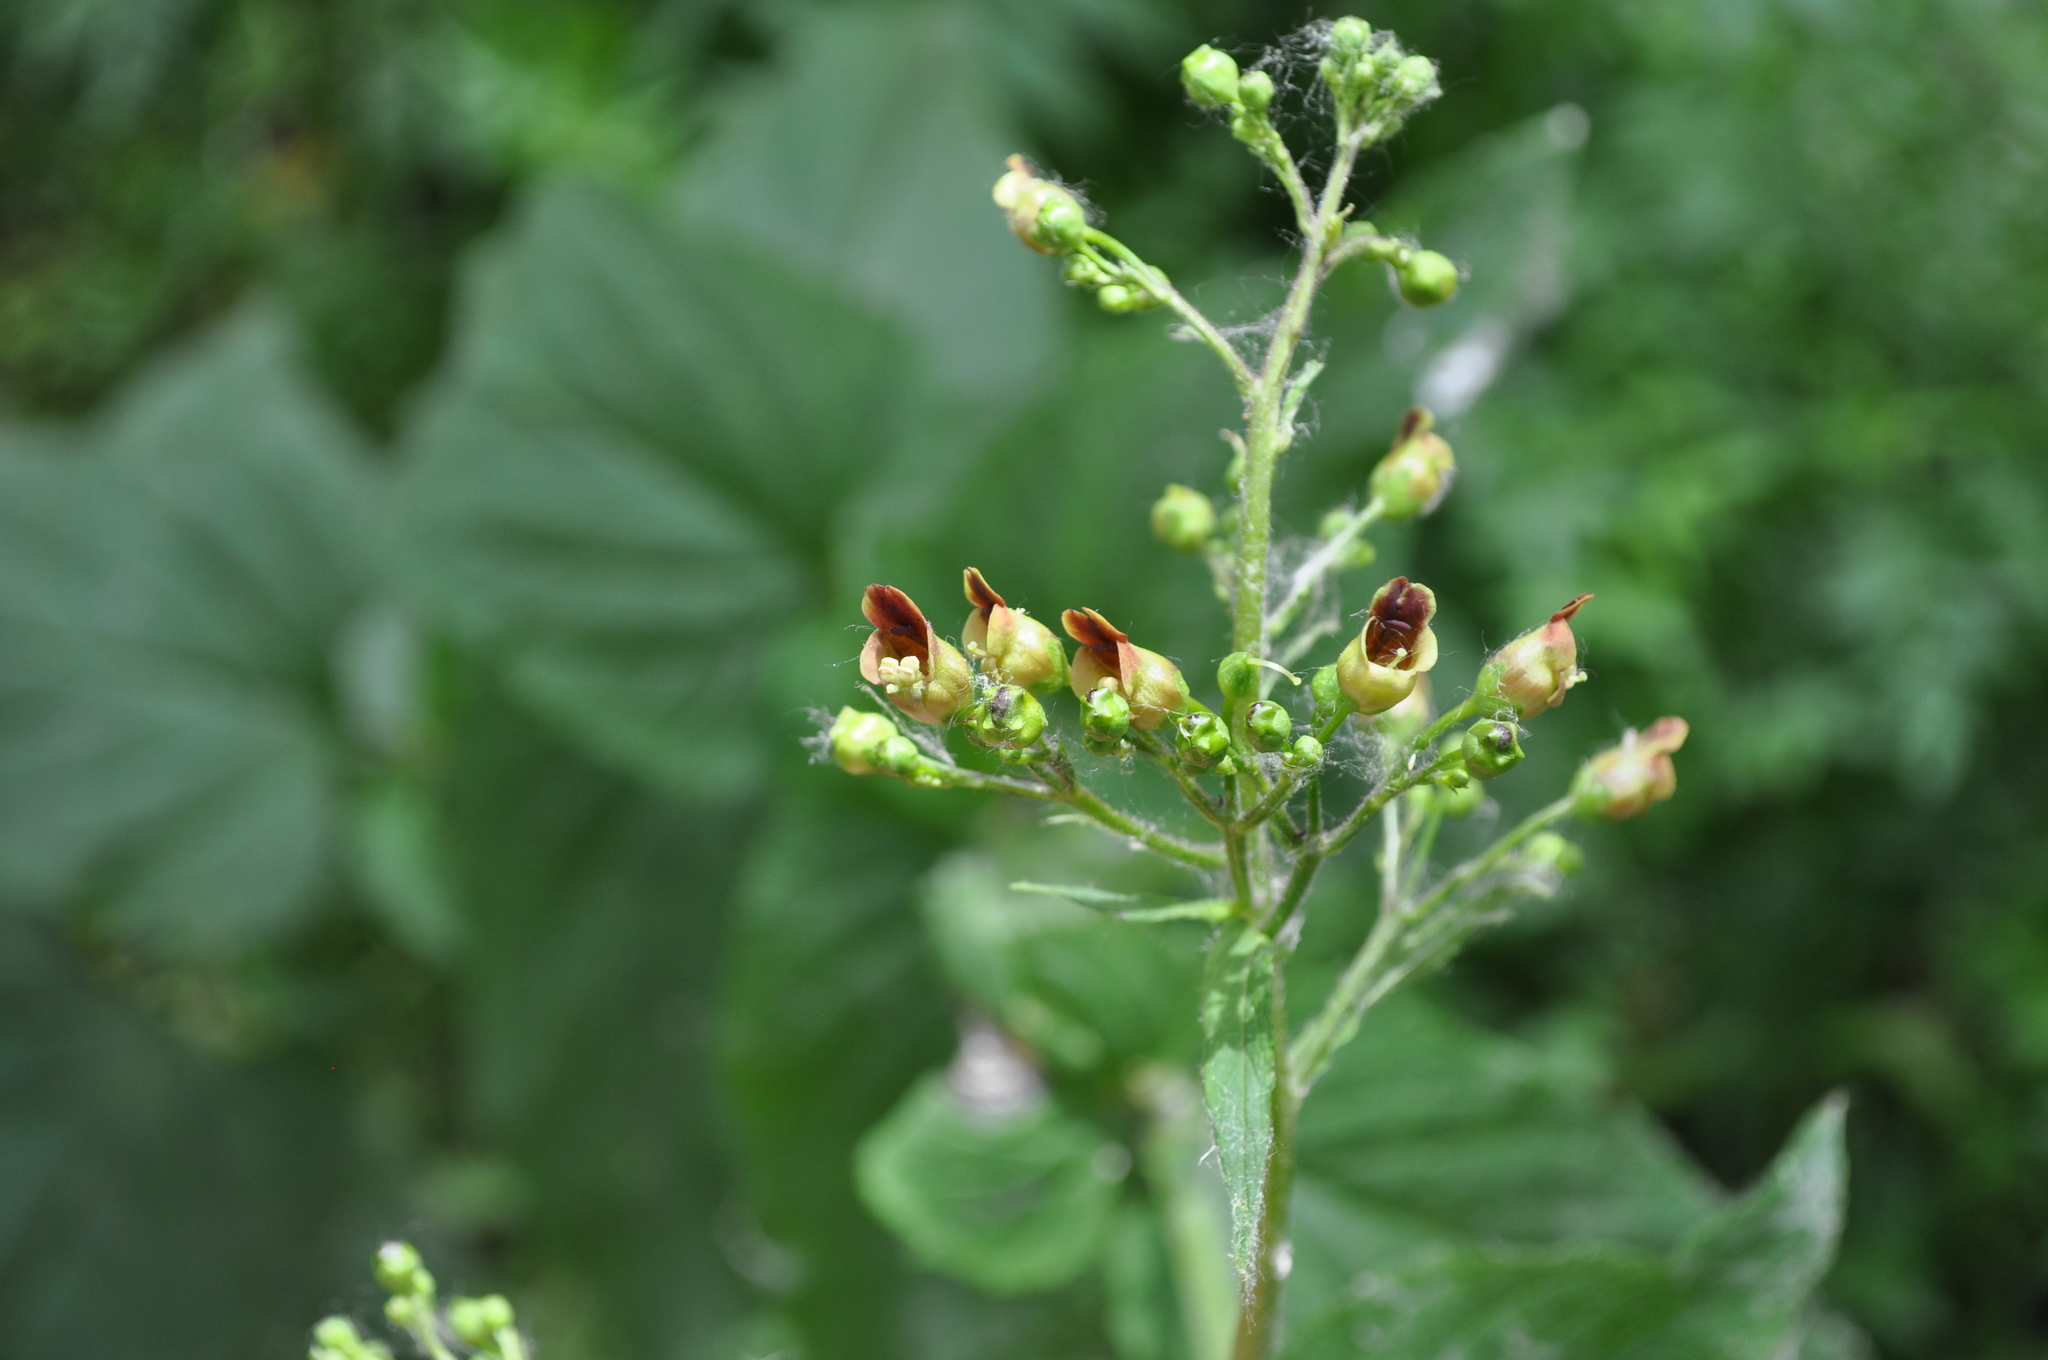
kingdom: Plantae
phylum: Tracheophyta
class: Magnoliopsida
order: Lamiales
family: Scrophulariaceae
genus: Scrophularia
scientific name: Scrophularia nodosa
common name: Common figwort
